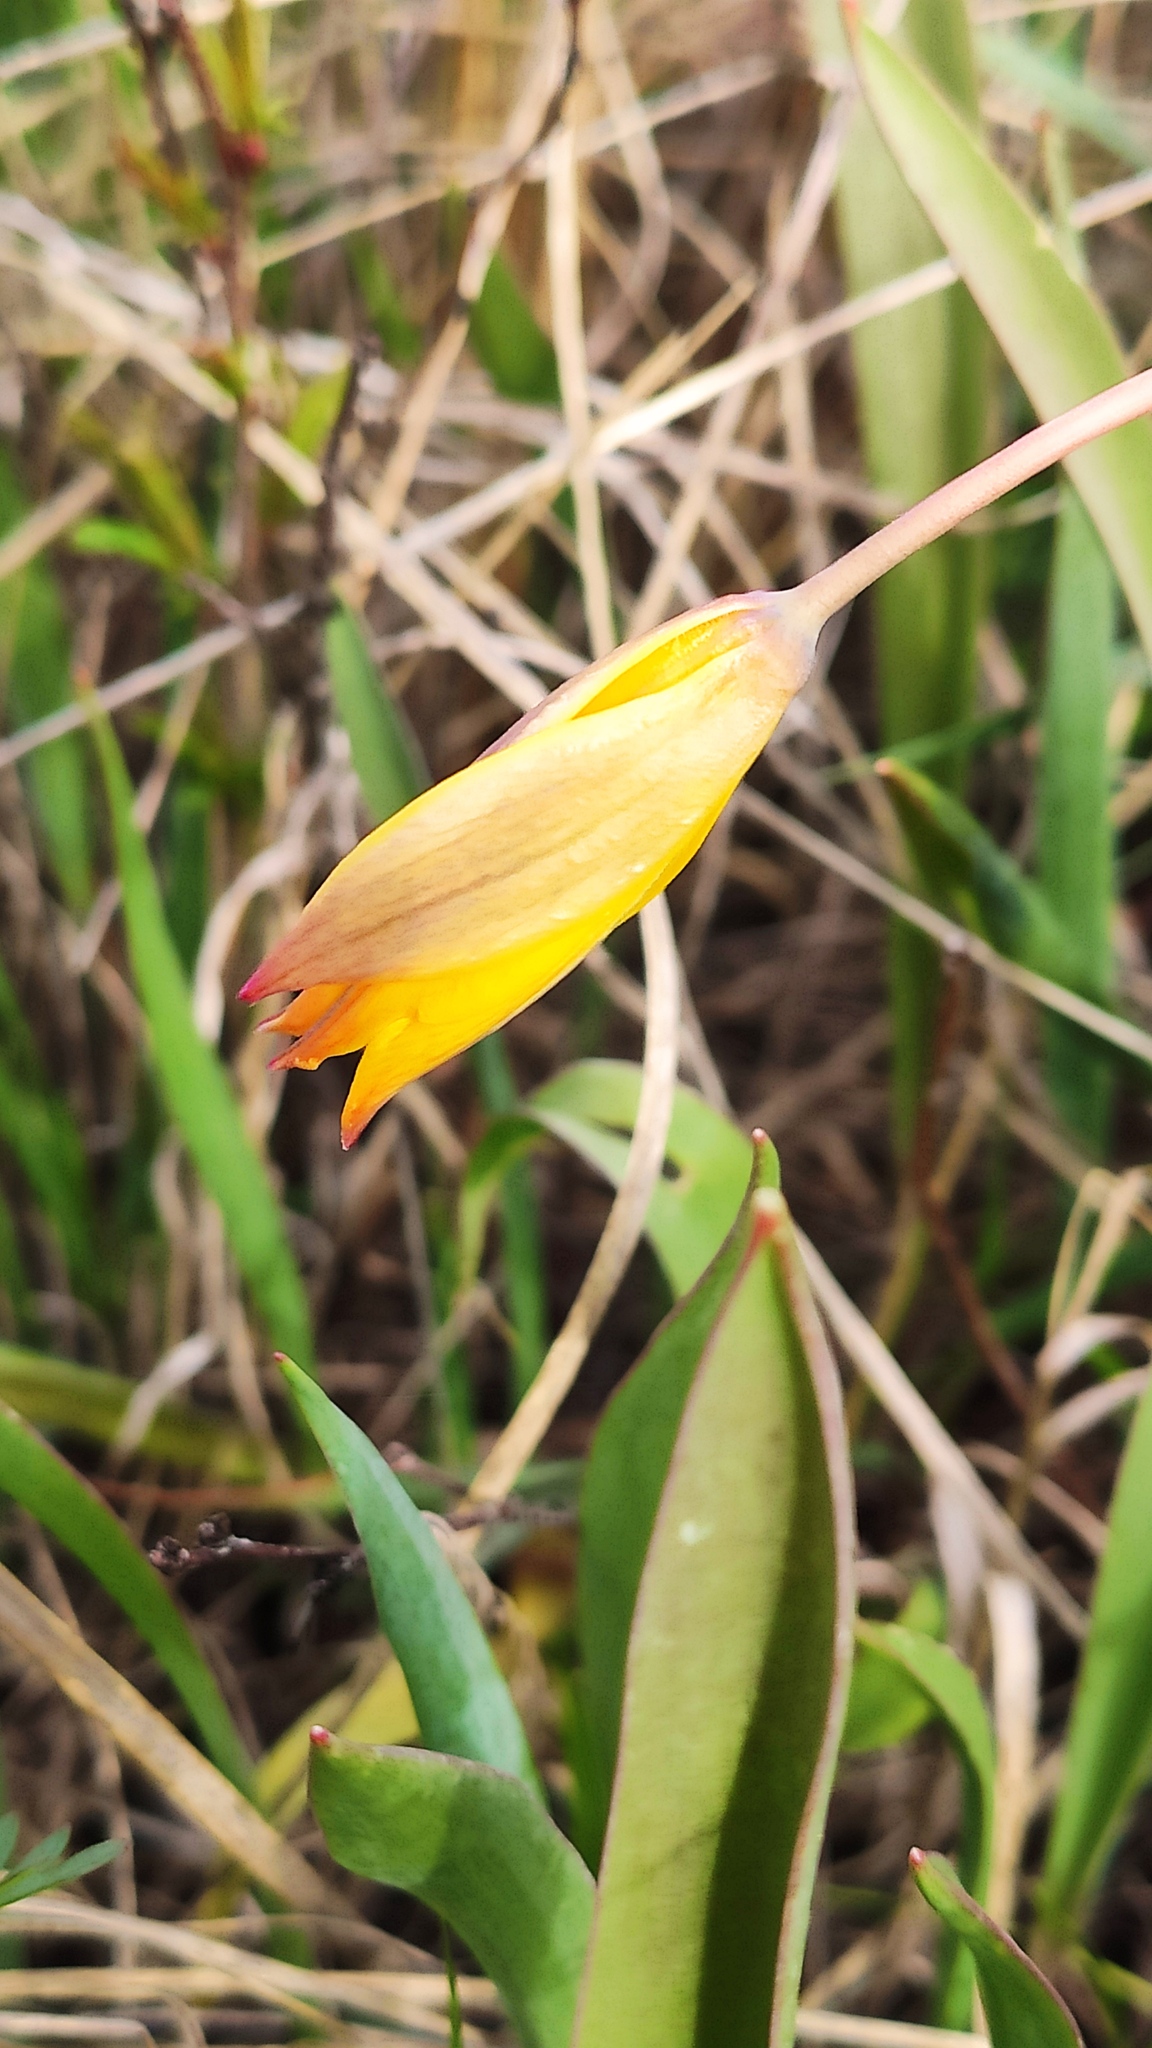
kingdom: Plantae
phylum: Tracheophyta
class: Liliopsida
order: Liliales
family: Liliaceae
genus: Tulipa
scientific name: Tulipa sylvestris
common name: Wild tulip
